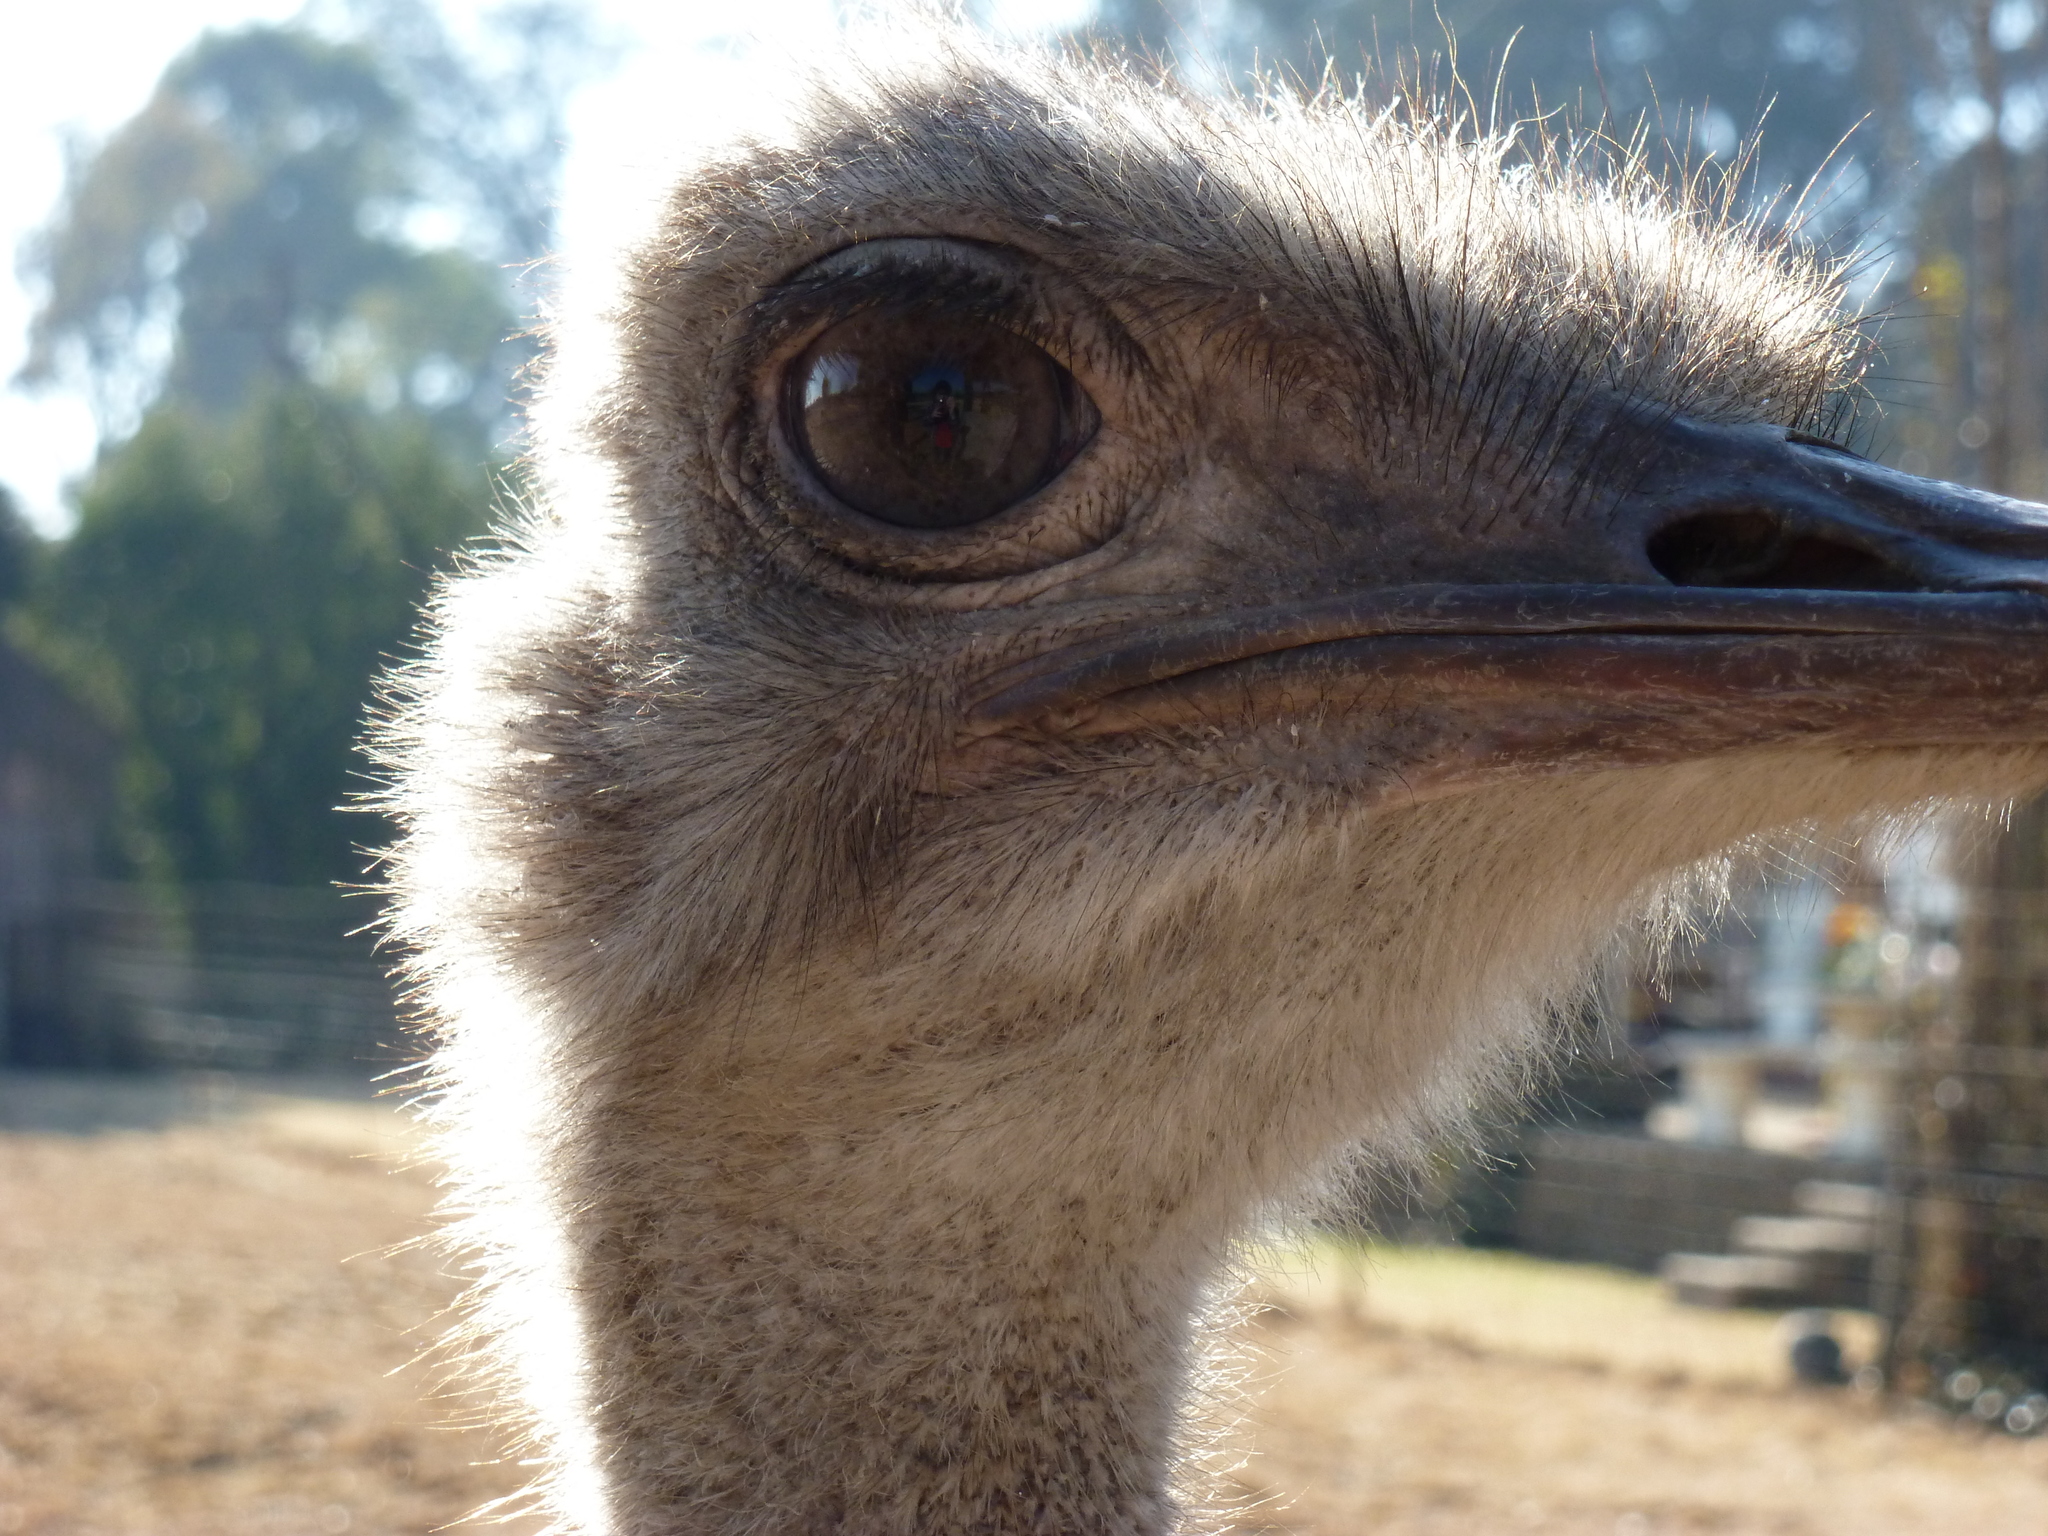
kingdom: Animalia
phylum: Chordata
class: Aves
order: Struthioniformes
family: Struthionidae
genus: Struthio
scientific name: Struthio camelus
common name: Common ostrich
